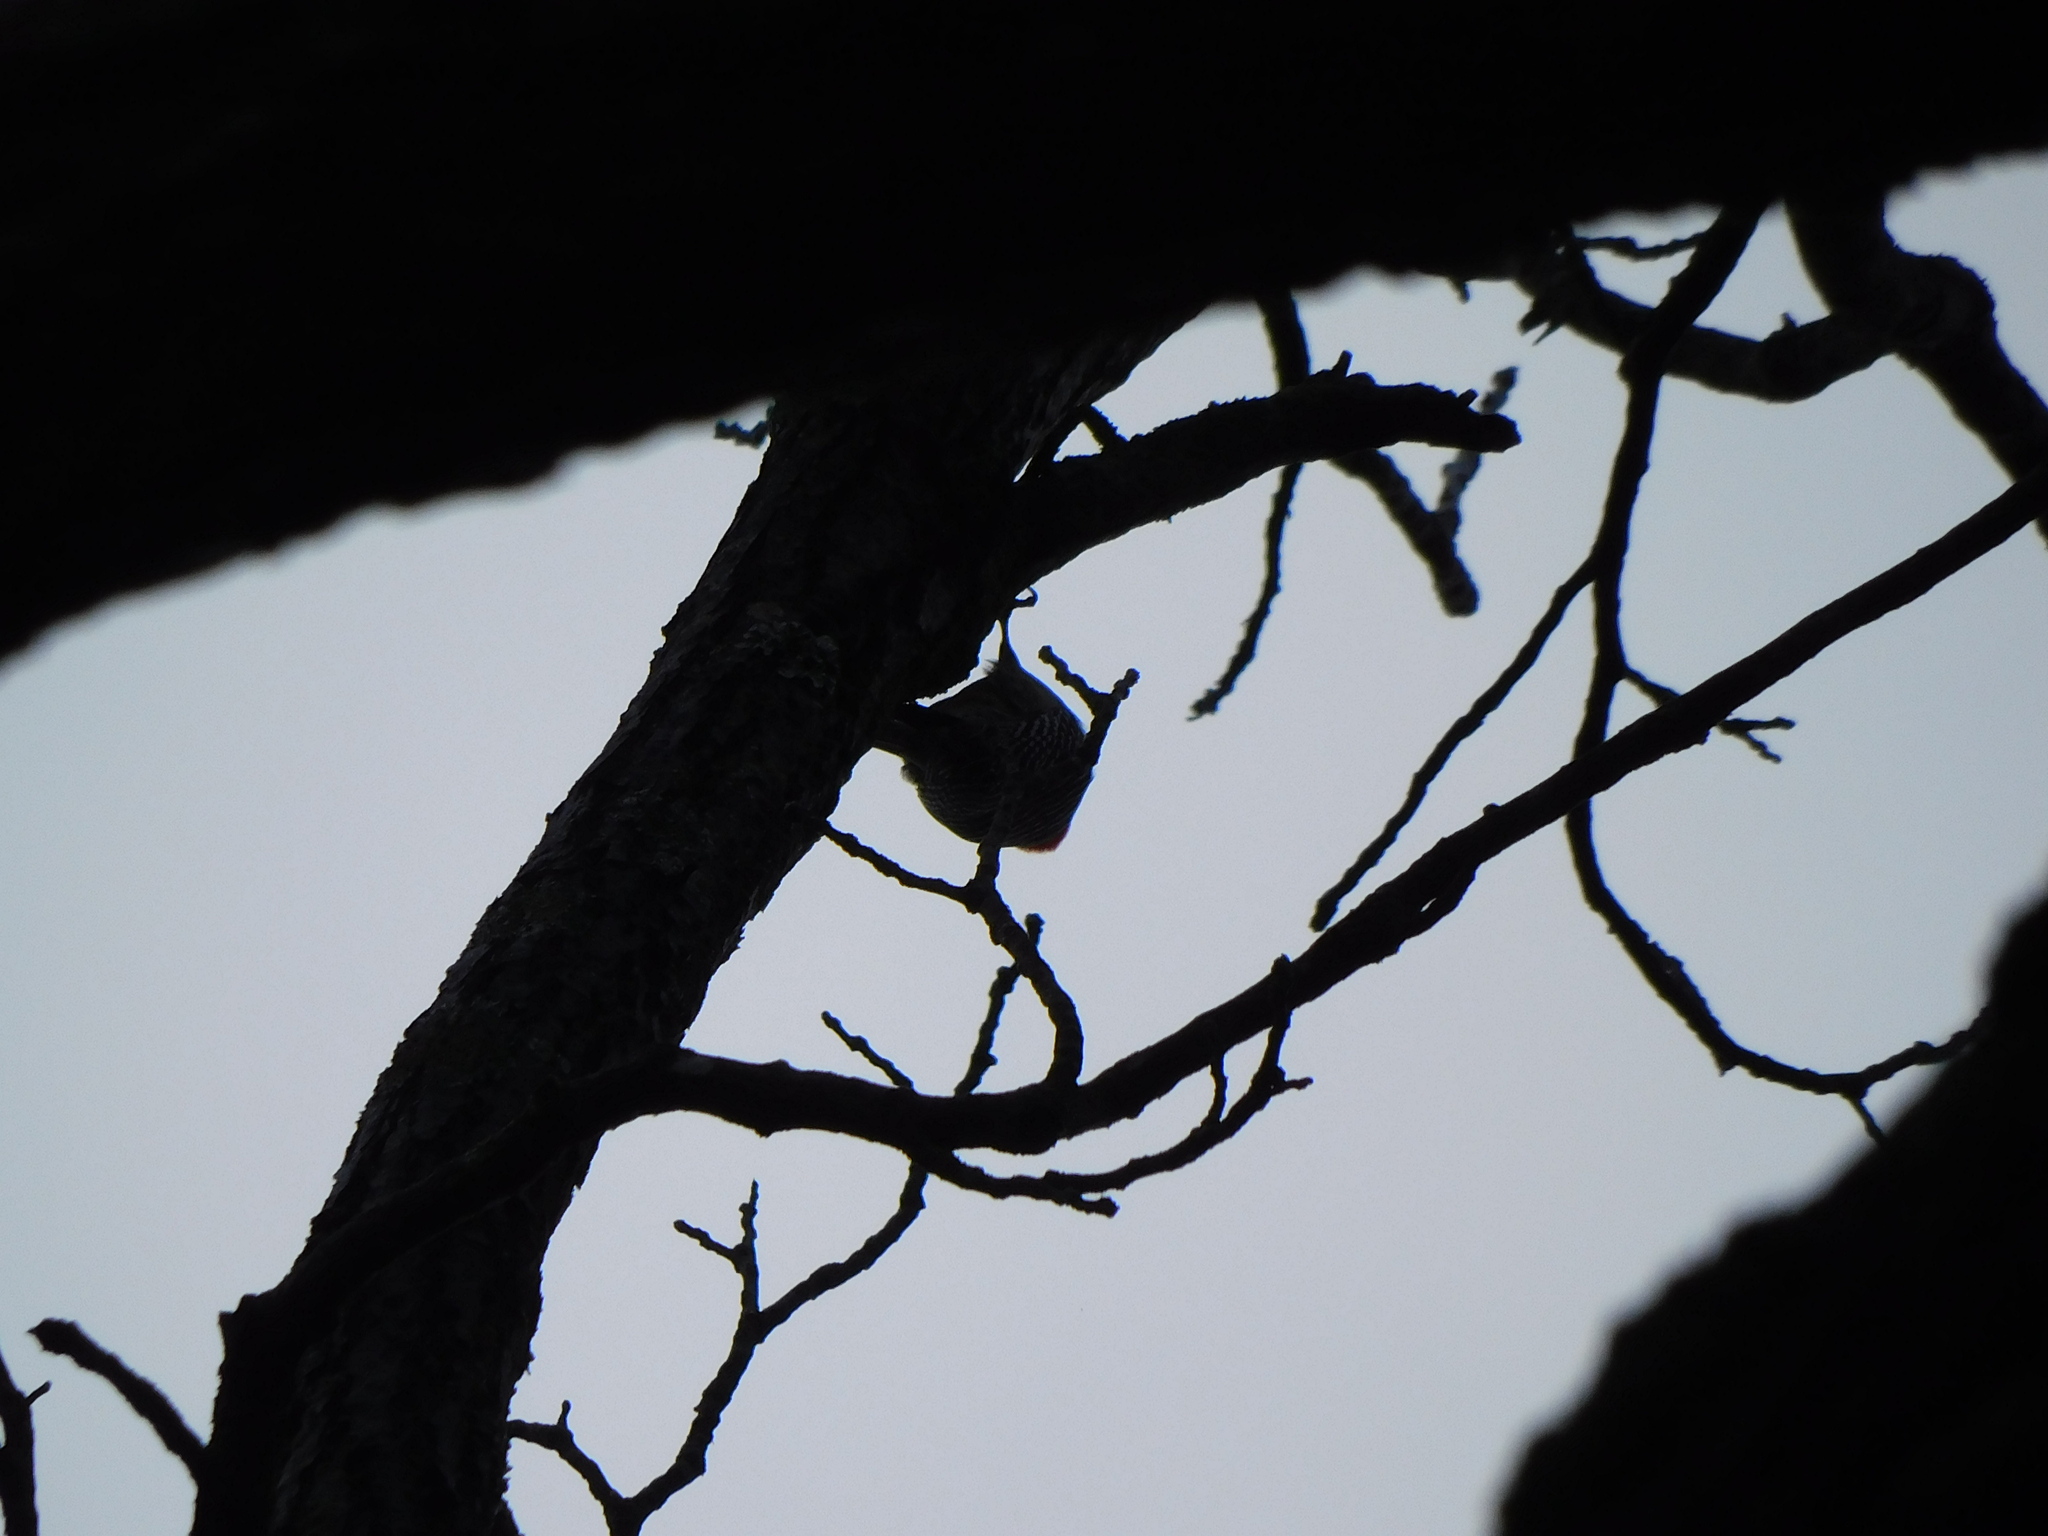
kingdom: Animalia
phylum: Chordata
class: Aves
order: Piciformes
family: Picidae
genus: Melanerpes
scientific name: Melanerpes carolinus
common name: Red-bellied woodpecker
